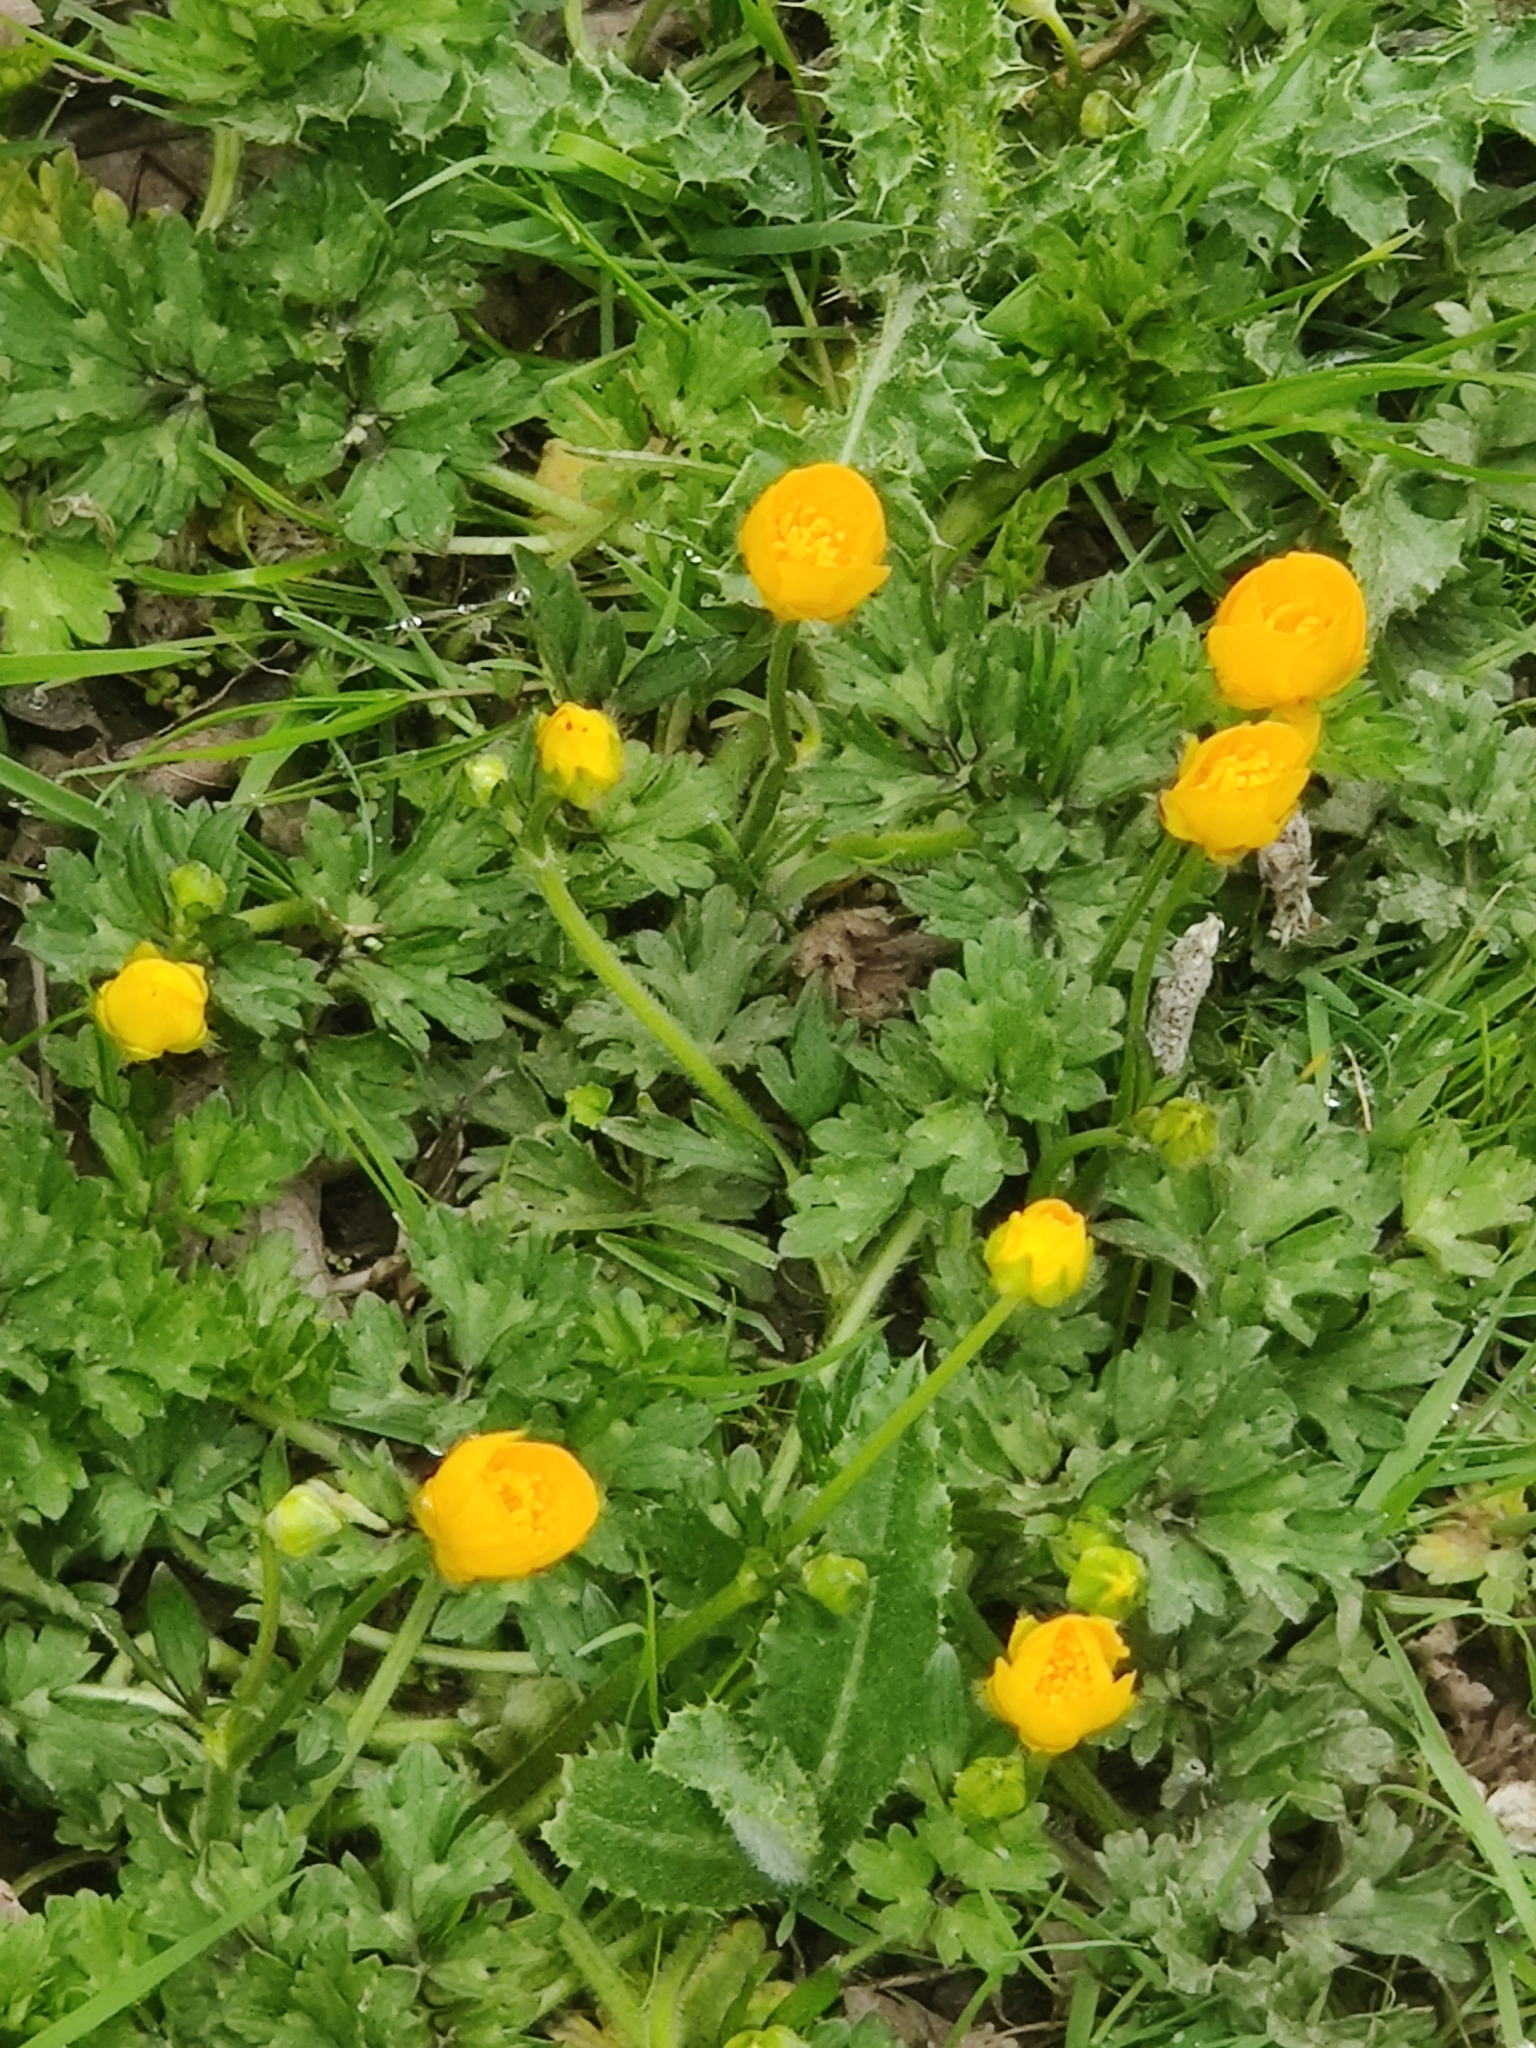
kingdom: Plantae
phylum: Tracheophyta
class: Magnoliopsida
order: Ranunculales
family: Ranunculaceae
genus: Ranunculus
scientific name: Ranunculus repens
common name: Creeping buttercup
